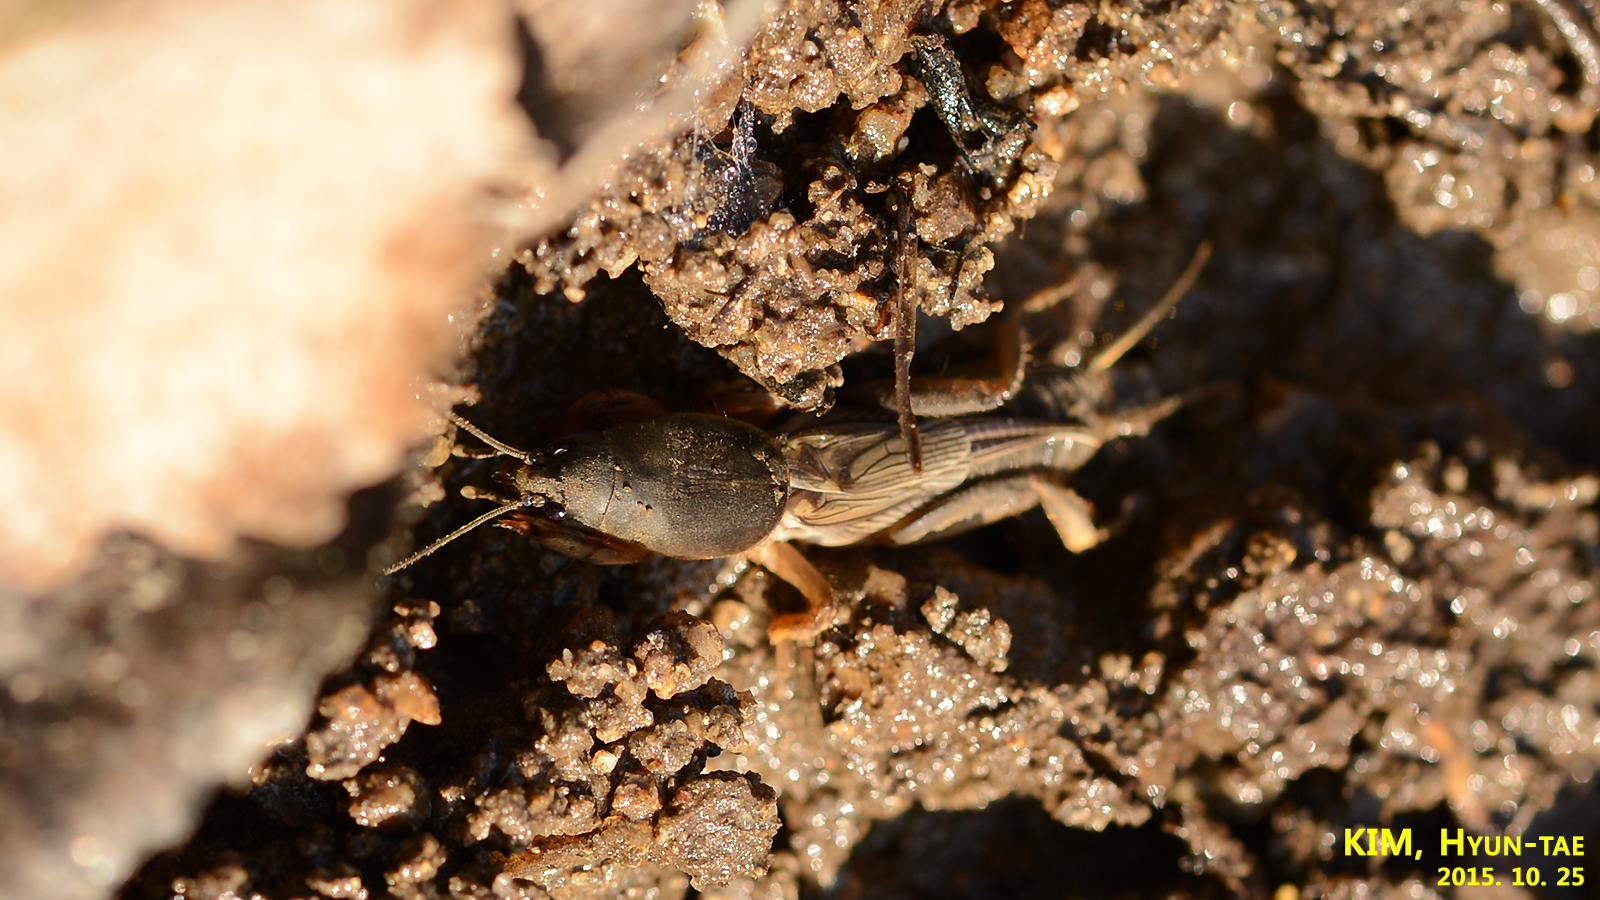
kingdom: Animalia
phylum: Arthropoda
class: Insecta
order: Orthoptera
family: Gryllotalpidae
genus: Gryllotalpa
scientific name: Gryllotalpa orientalis
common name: Grasshopper
